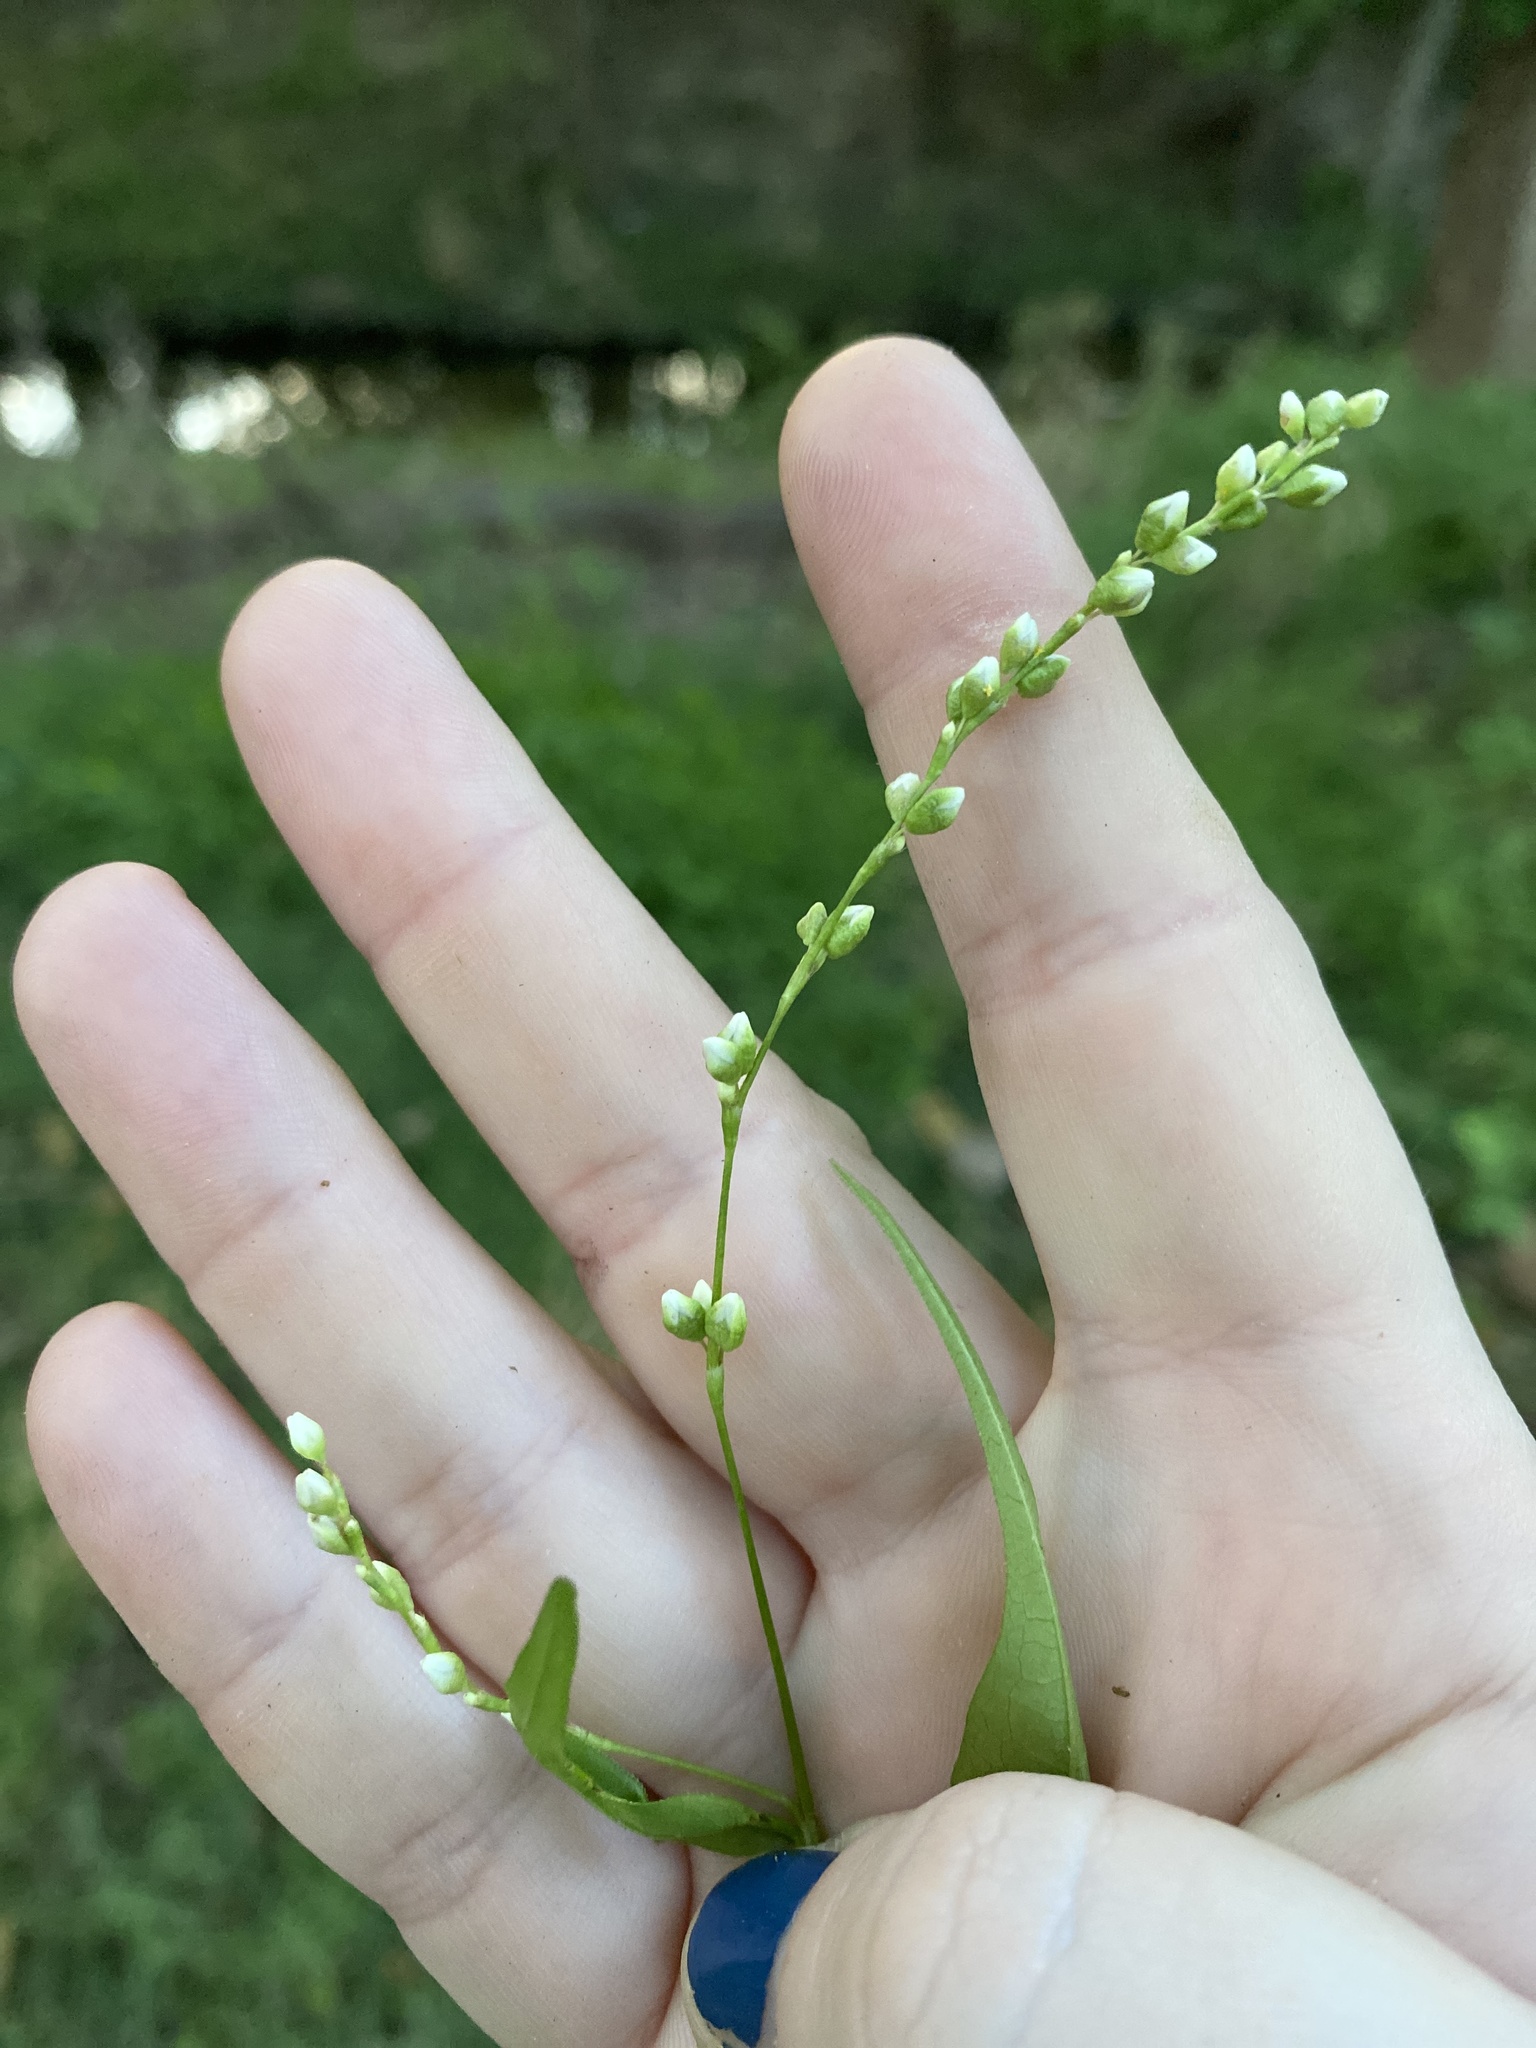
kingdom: Plantae
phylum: Tracheophyta
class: Magnoliopsida
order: Caryophyllales
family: Polygonaceae
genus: Persicaria
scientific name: Persicaria punctata
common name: Dotted smartweed
